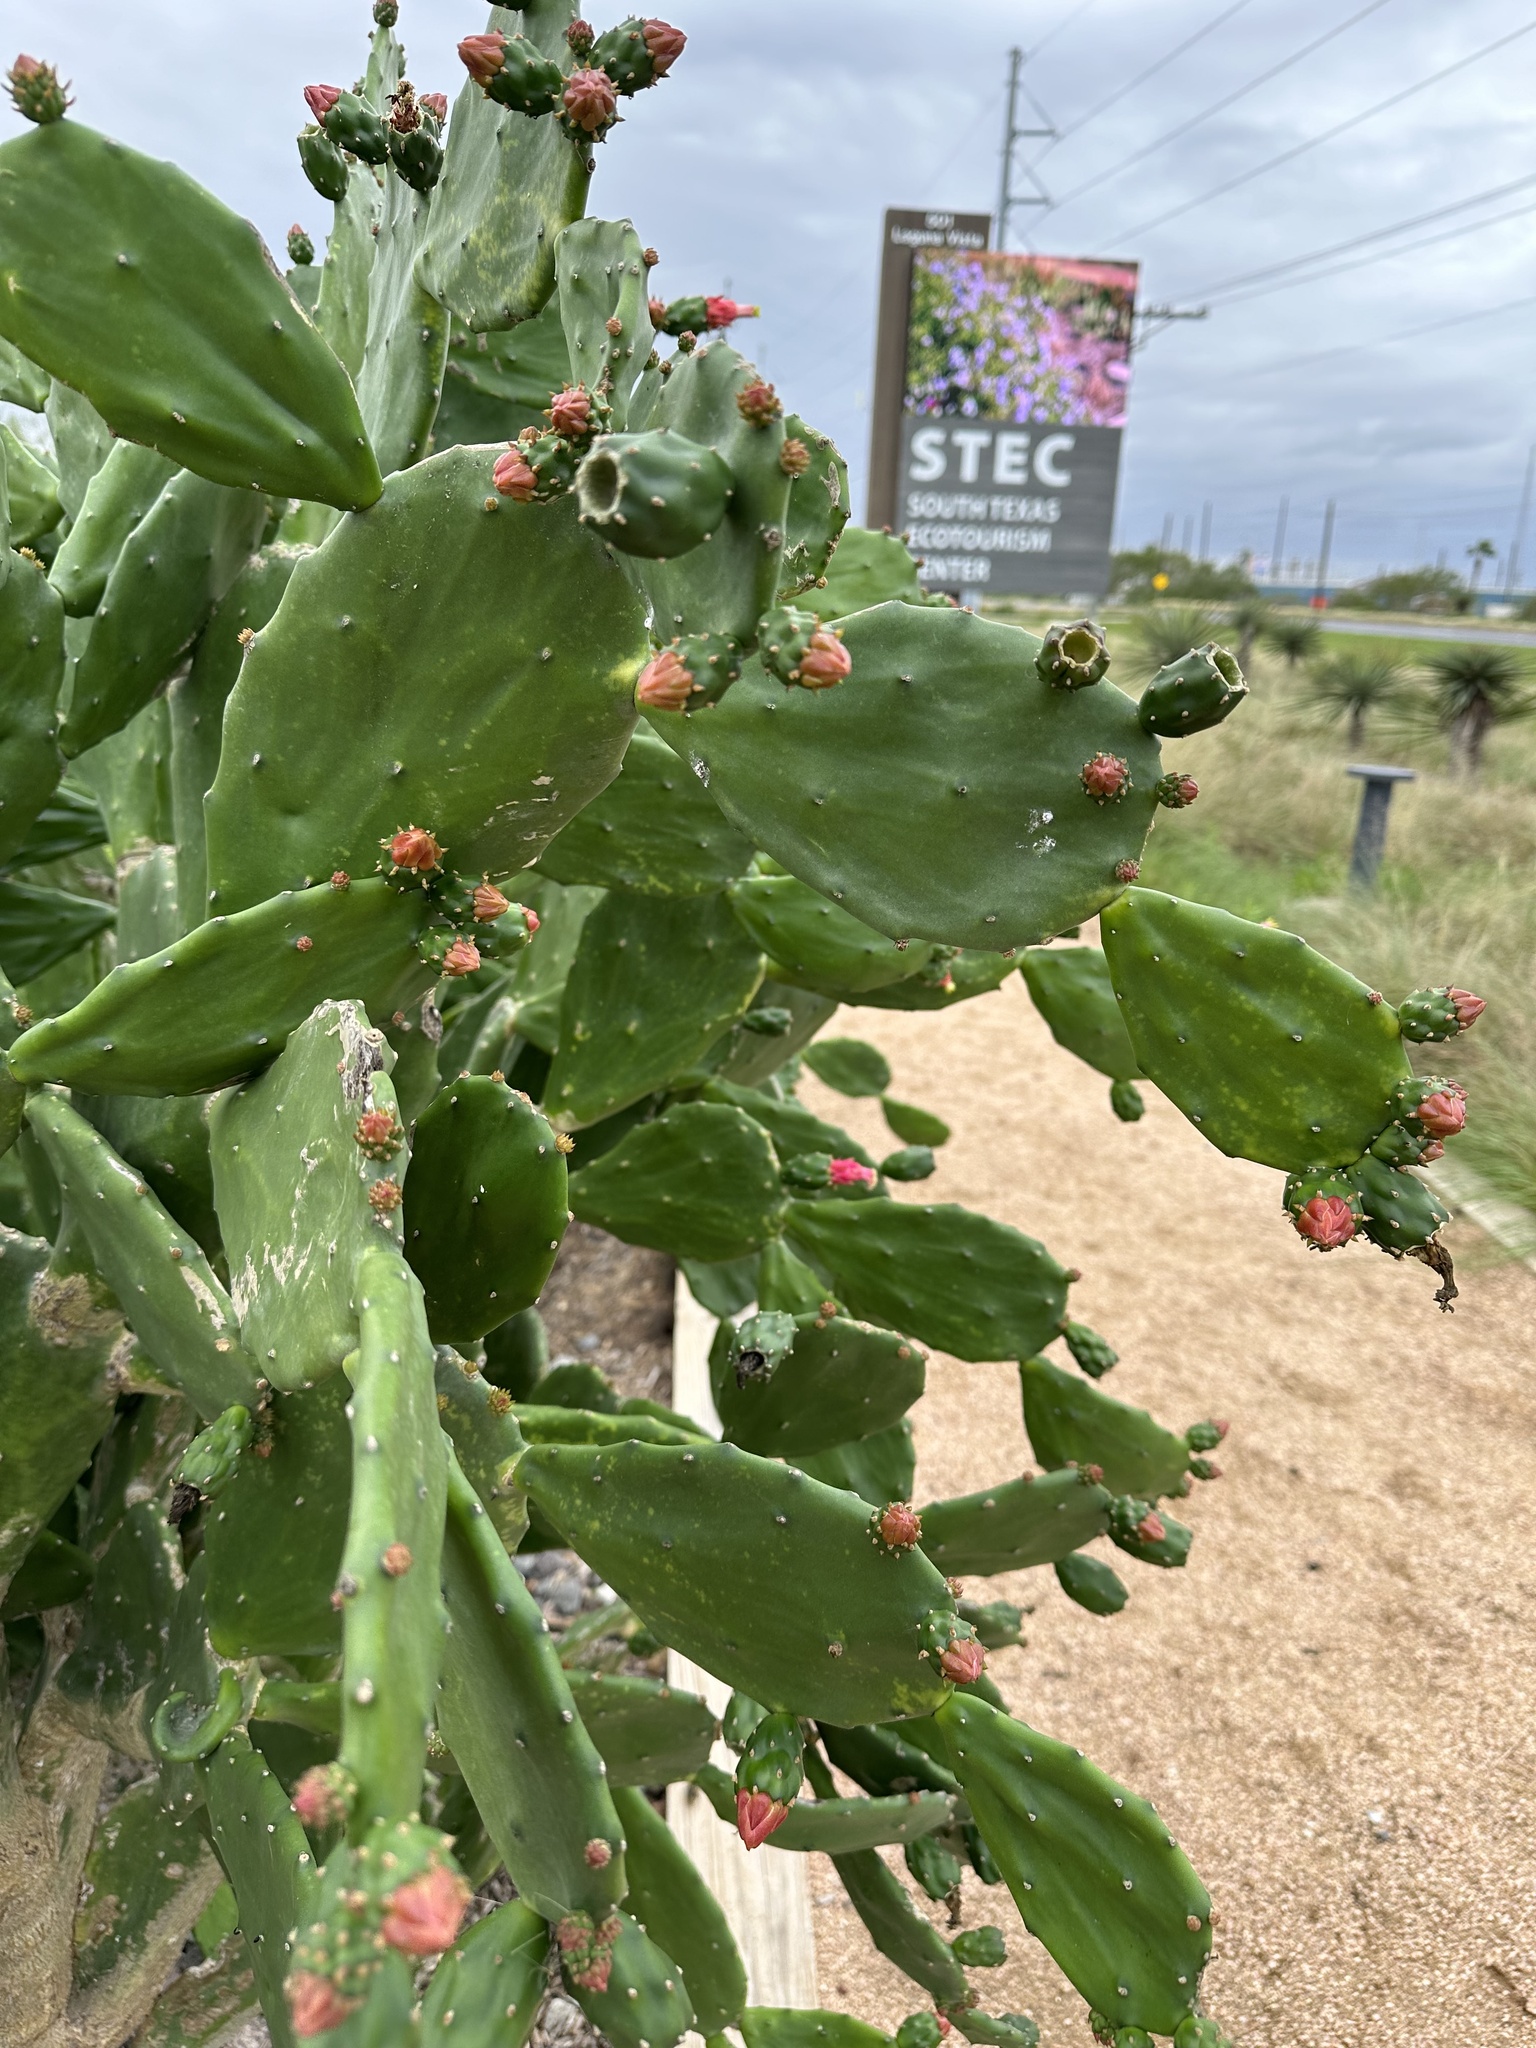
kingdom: Plantae
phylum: Tracheophyta
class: Magnoliopsida
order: Caryophyllales
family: Cactaceae
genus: Opuntia
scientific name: Opuntia cochenillifera
